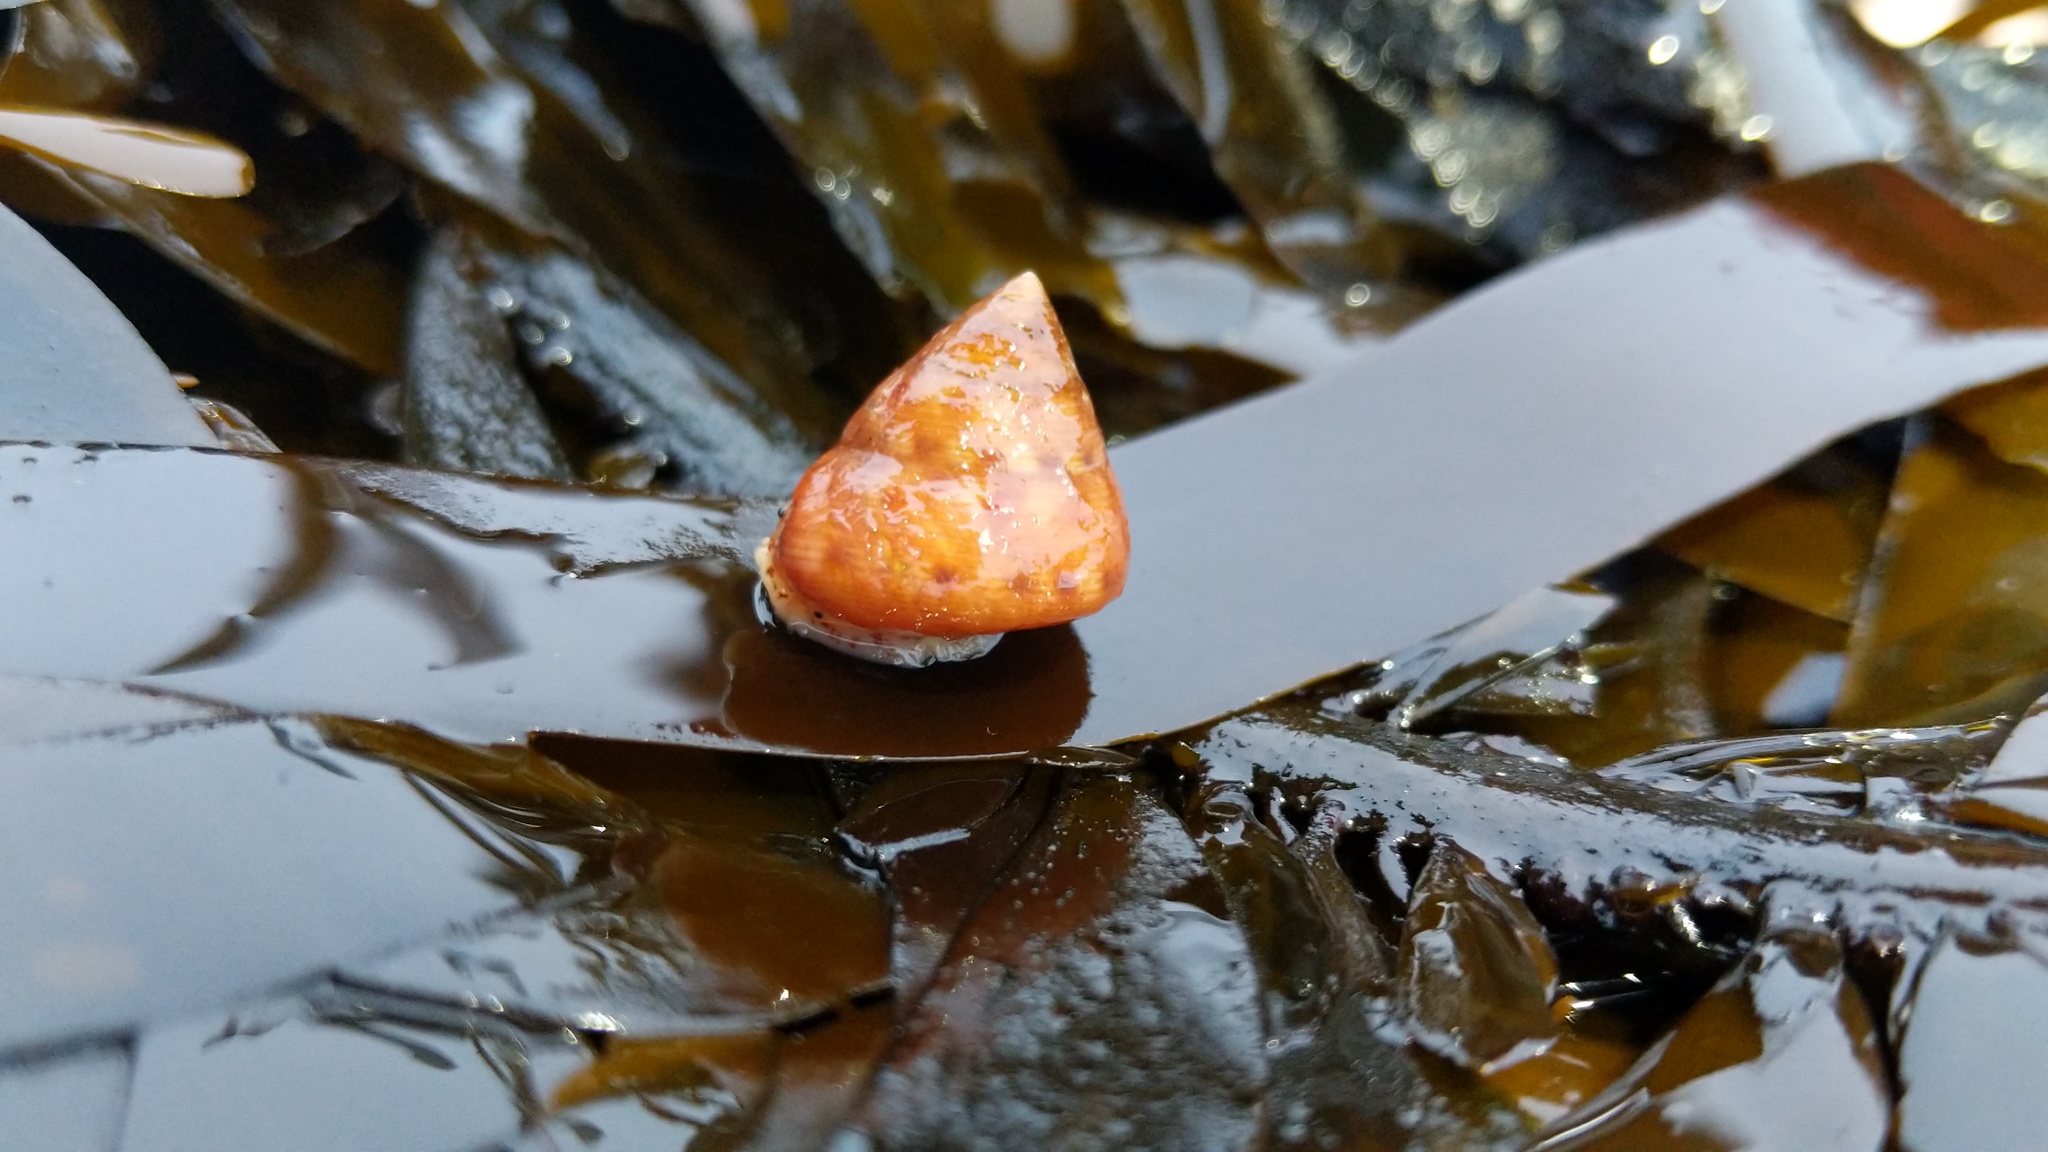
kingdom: Animalia
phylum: Mollusca
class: Gastropoda
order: Trochida
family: Calliostomatidae
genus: Calliostoma
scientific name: Calliostoma gloriosum
